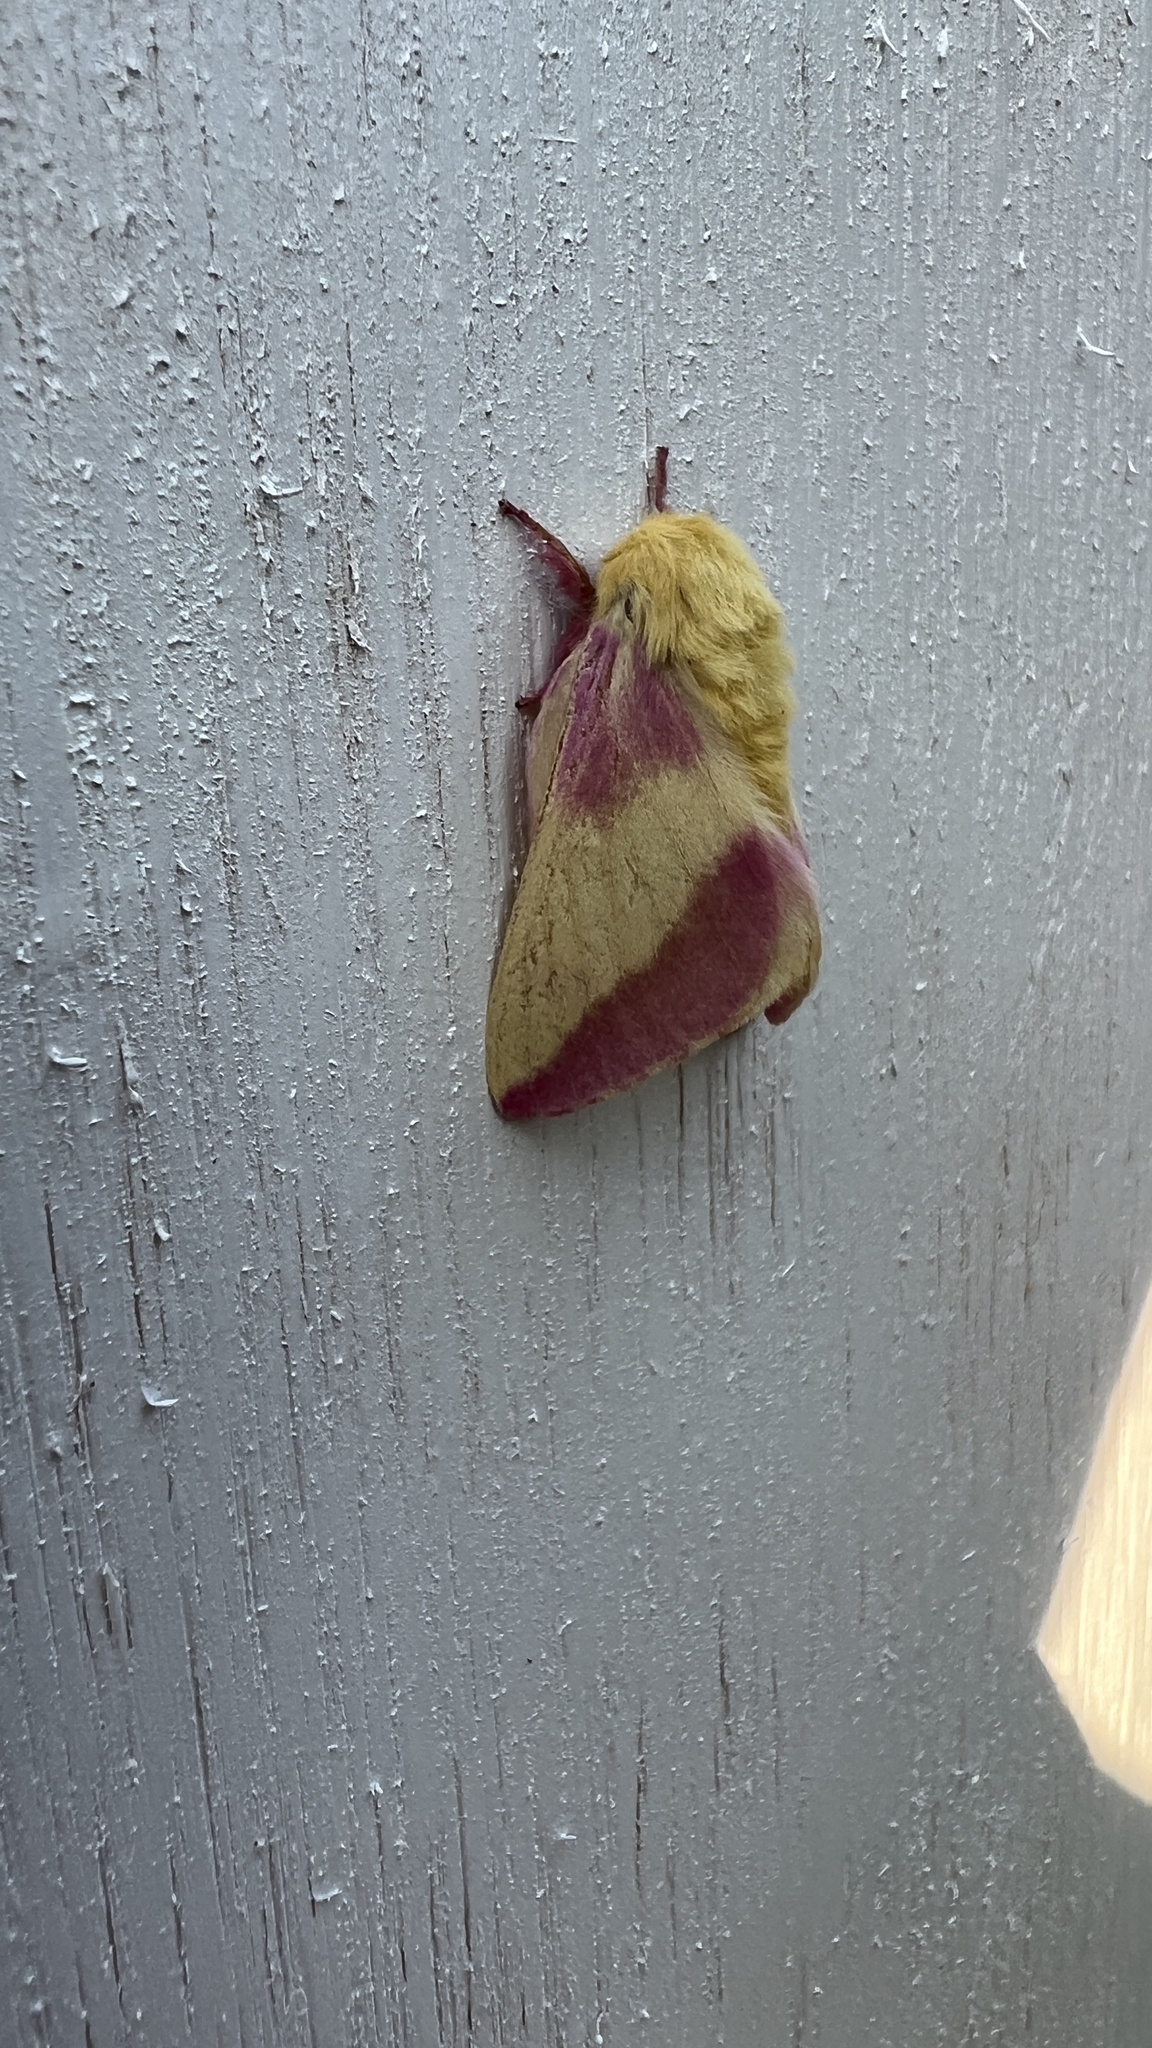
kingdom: Animalia
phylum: Arthropoda
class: Insecta
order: Lepidoptera
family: Saturniidae
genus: Dryocampa
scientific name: Dryocampa rubicunda
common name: Rosy maple moth
